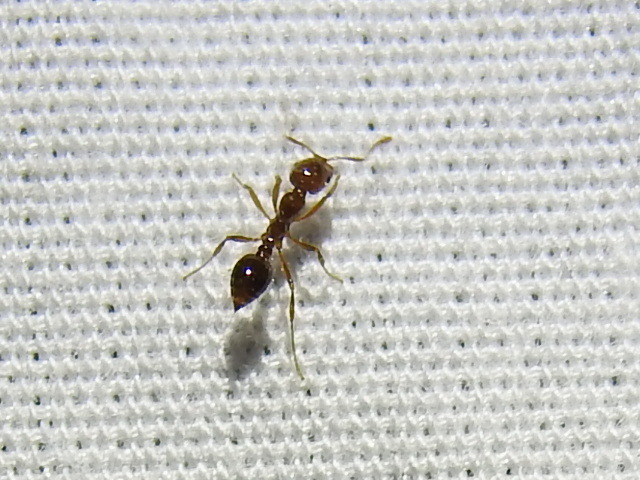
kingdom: Animalia
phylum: Arthropoda
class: Insecta
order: Hymenoptera
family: Formicidae
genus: Solenopsis
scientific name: Solenopsis invicta
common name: Red imported fire ant
